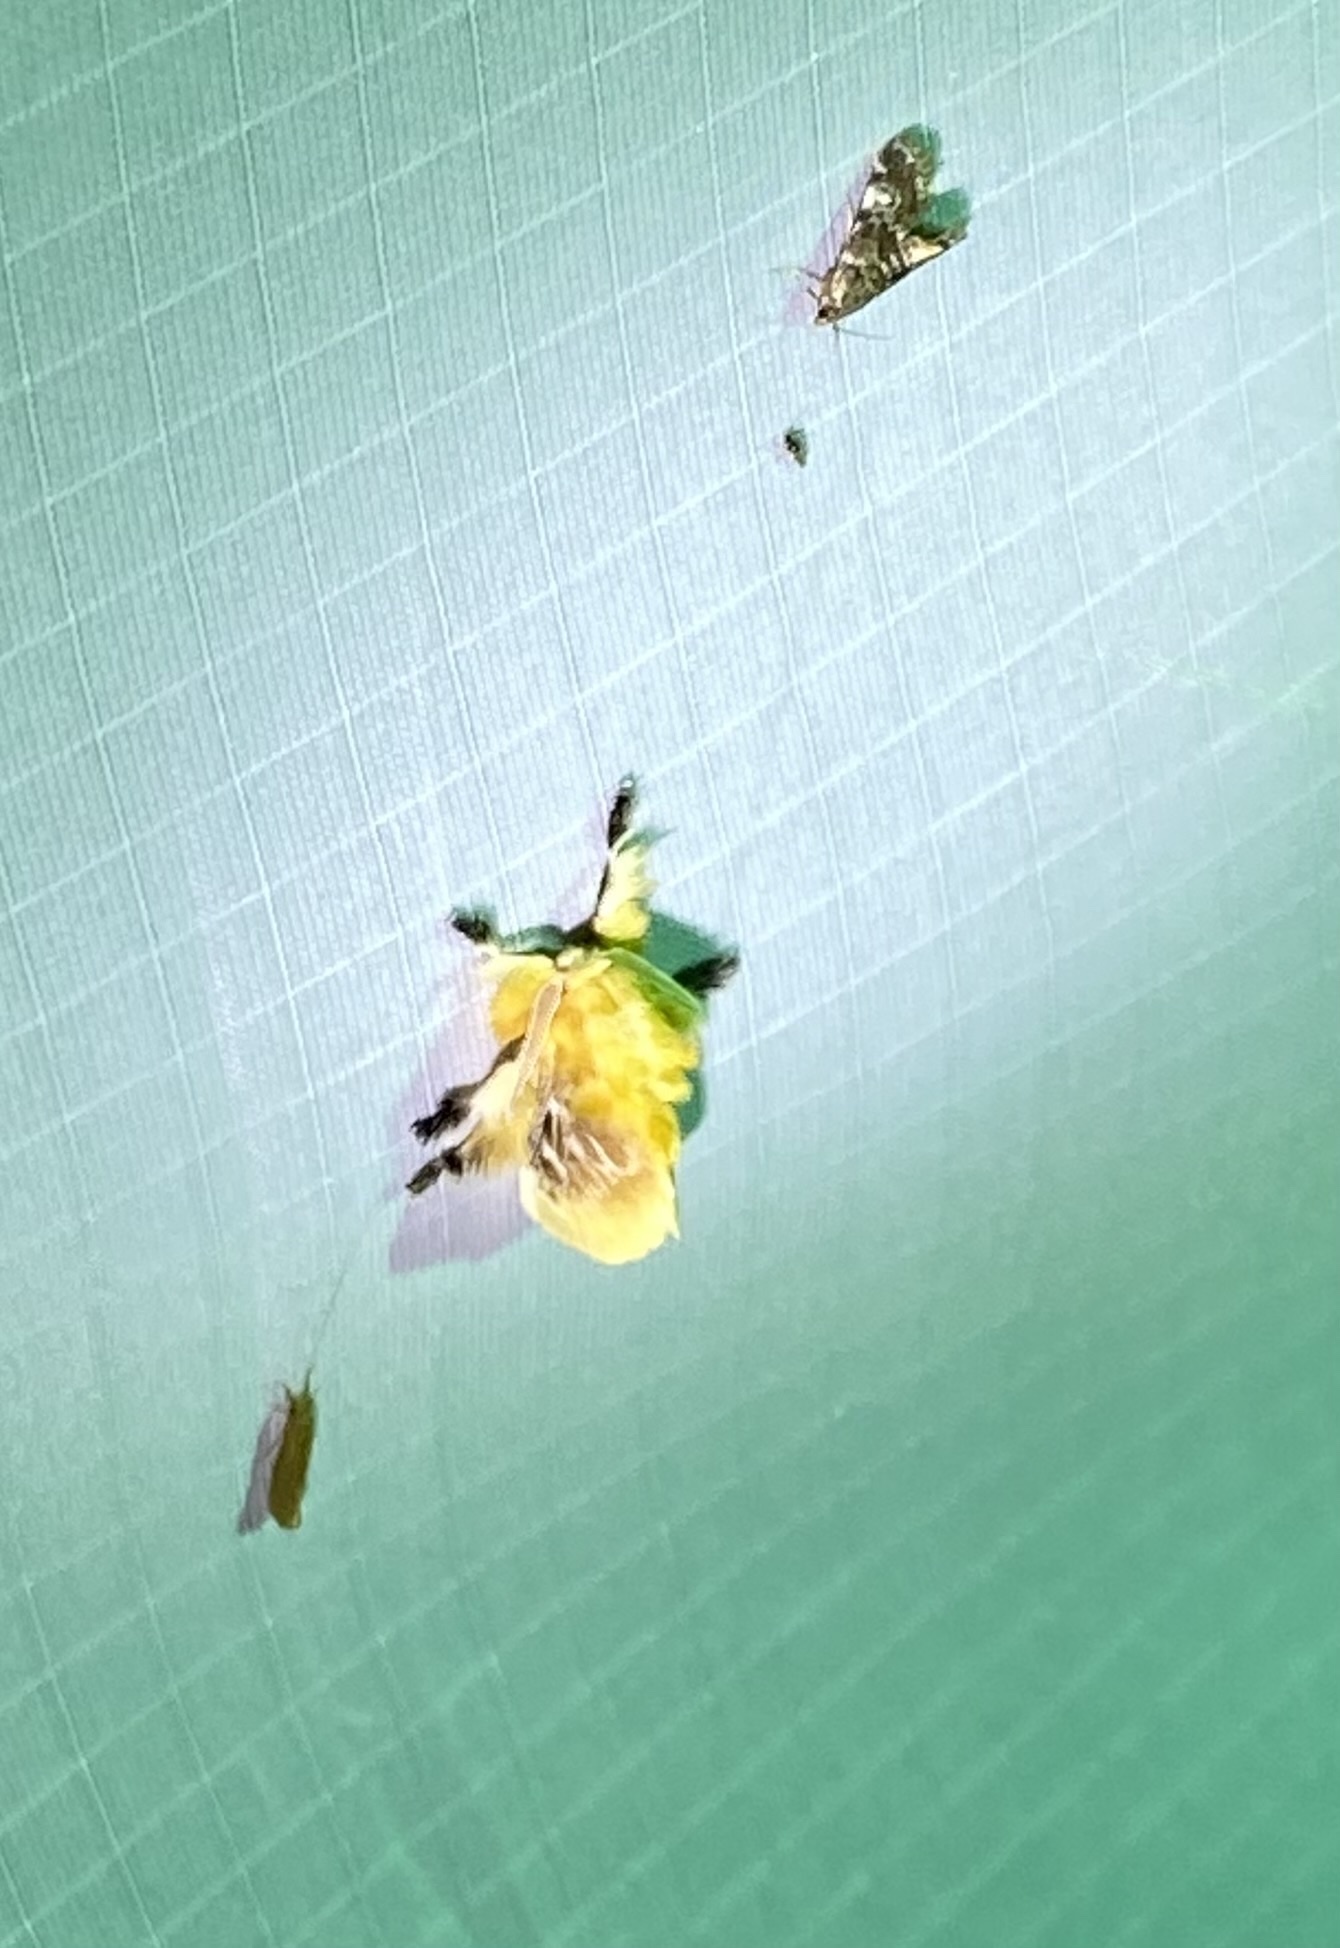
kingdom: Animalia
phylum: Arthropoda
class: Insecta
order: Lepidoptera
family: Megalopygidae
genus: Megalopyge
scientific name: Megalopyge opercularis
